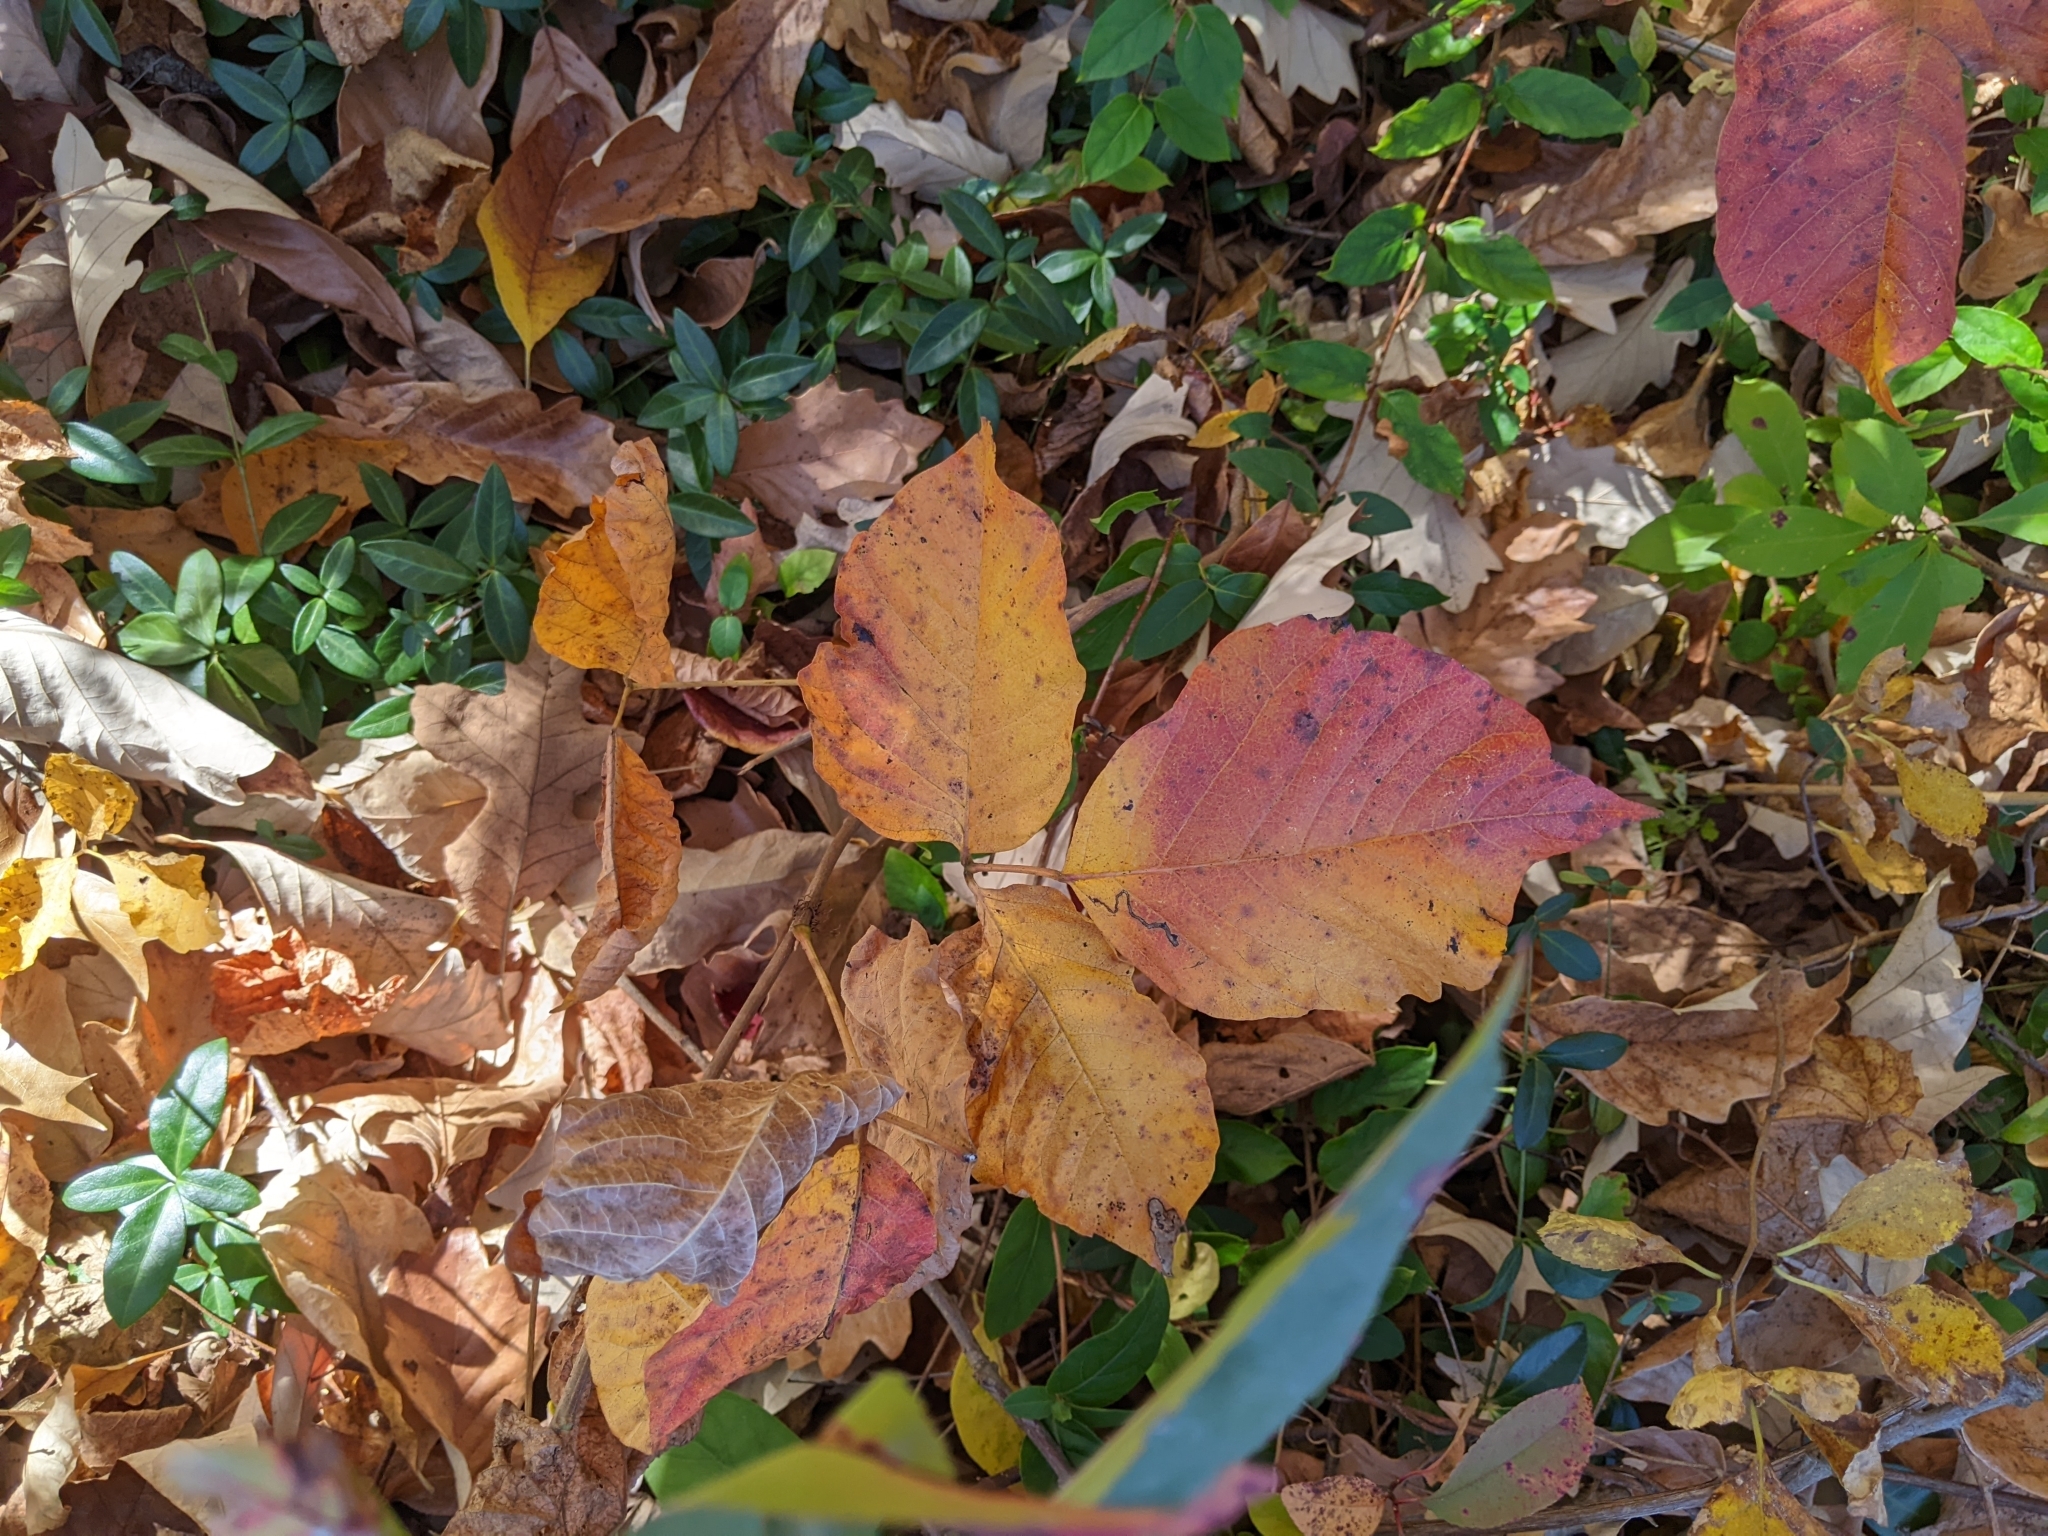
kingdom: Plantae
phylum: Tracheophyta
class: Magnoliopsida
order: Sapindales
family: Anacardiaceae
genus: Toxicodendron
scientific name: Toxicodendron radicans
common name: Poison ivy
